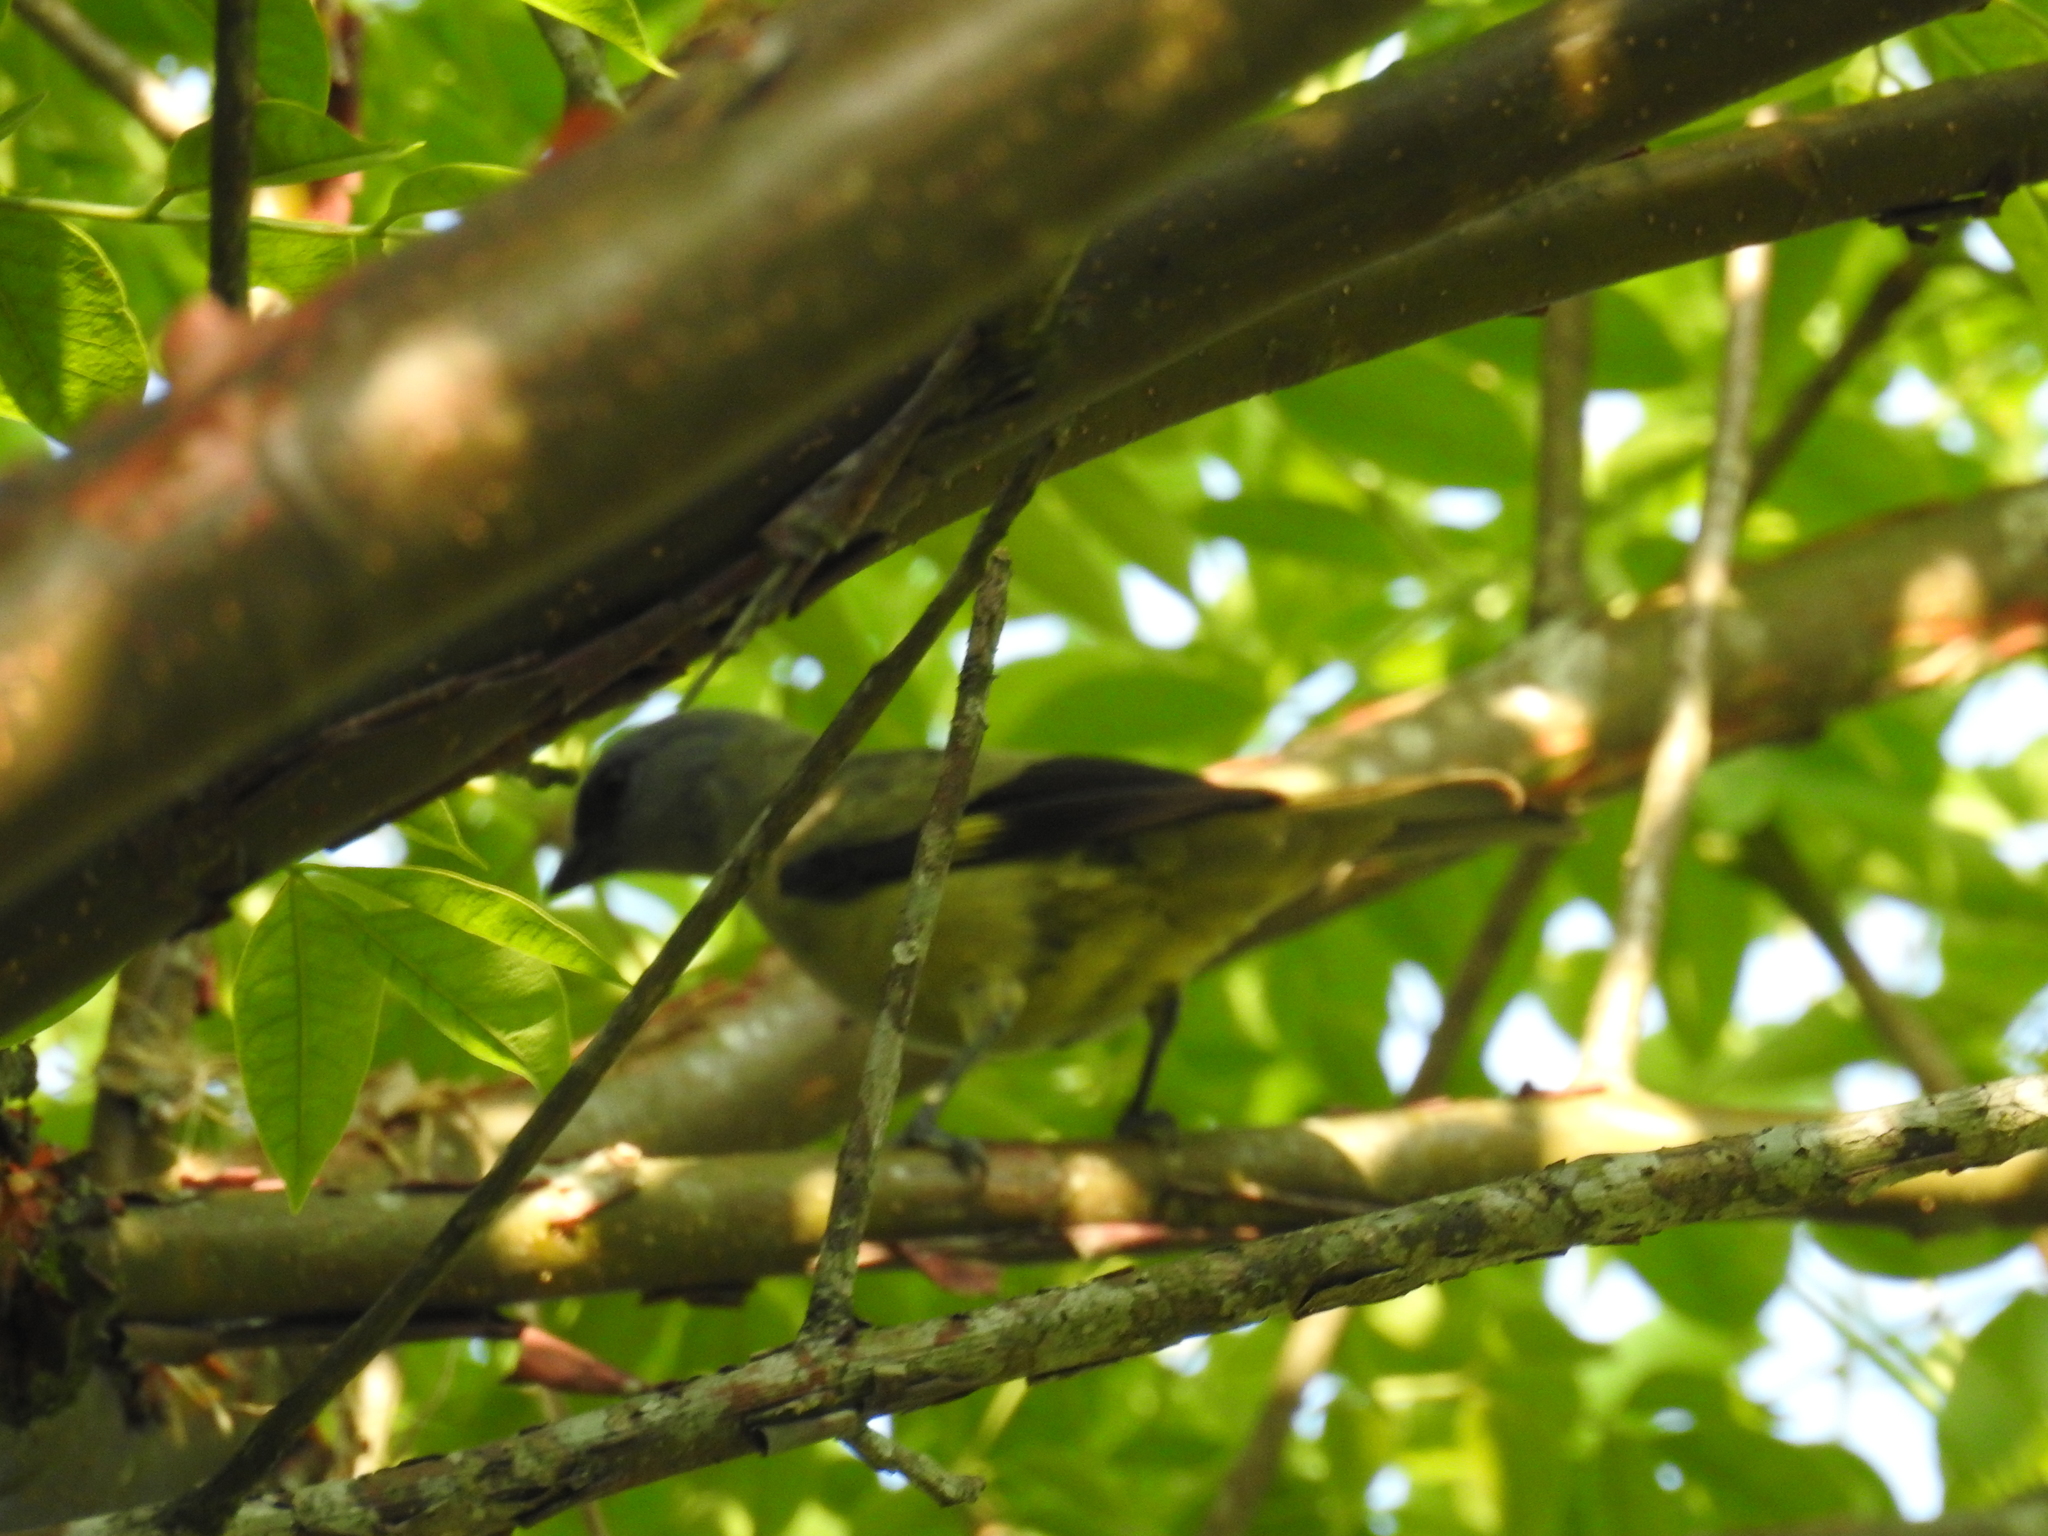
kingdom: Animalia
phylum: Chordata
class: Aves
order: Passeriformes
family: Thraupidae
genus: Thraupis
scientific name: Thraupis abbas
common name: Yellow-winged tanager
